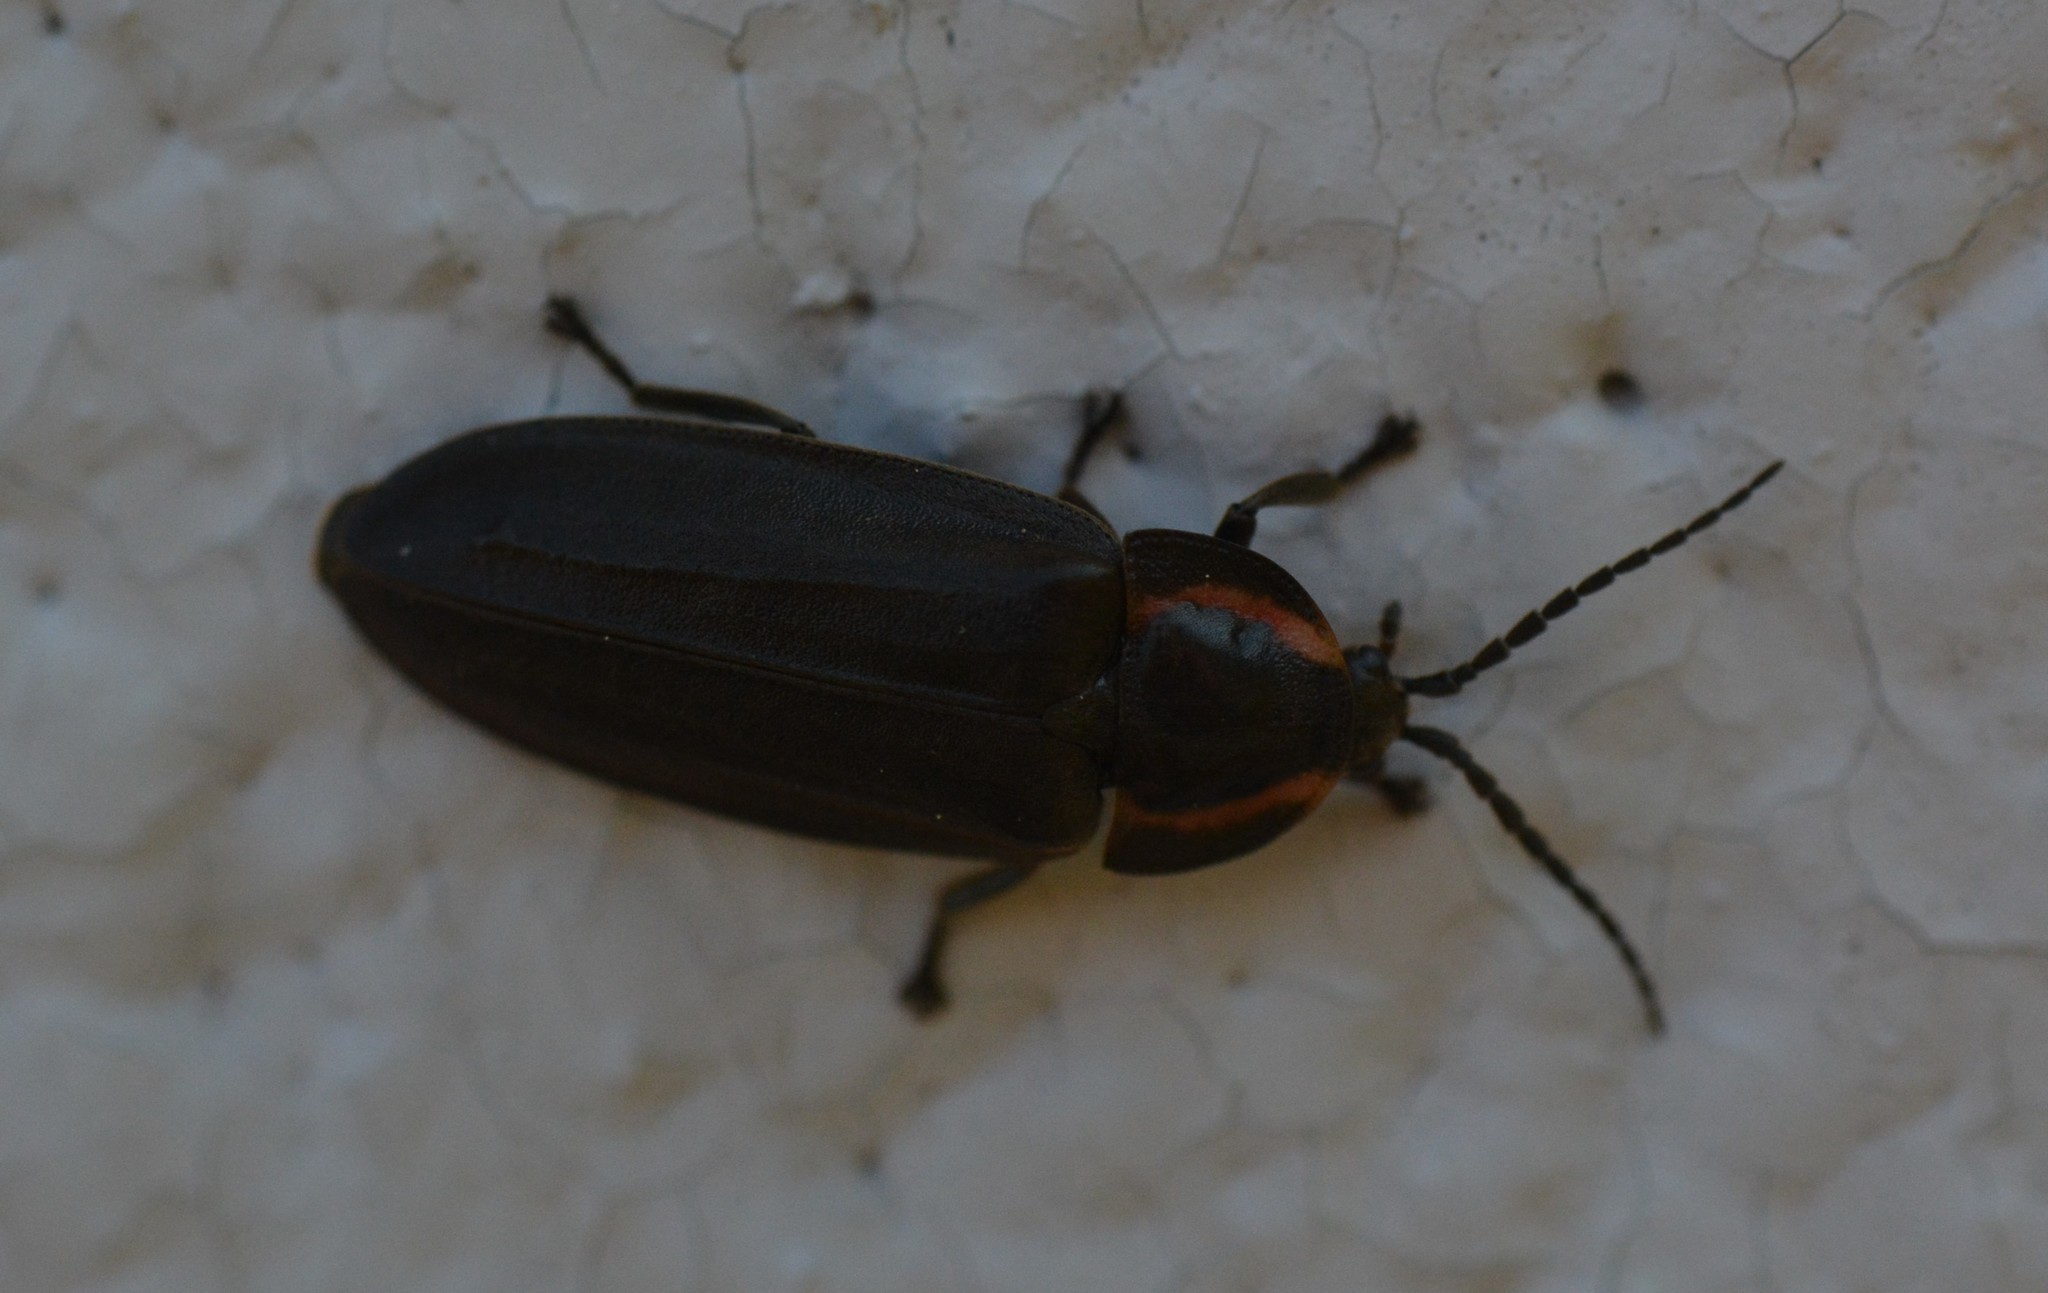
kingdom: Animalia
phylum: Arthropoda
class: Insecta
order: Coleoptera
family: Lampyridae
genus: Photinus
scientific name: Photinus corrusca
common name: Winter firefly
